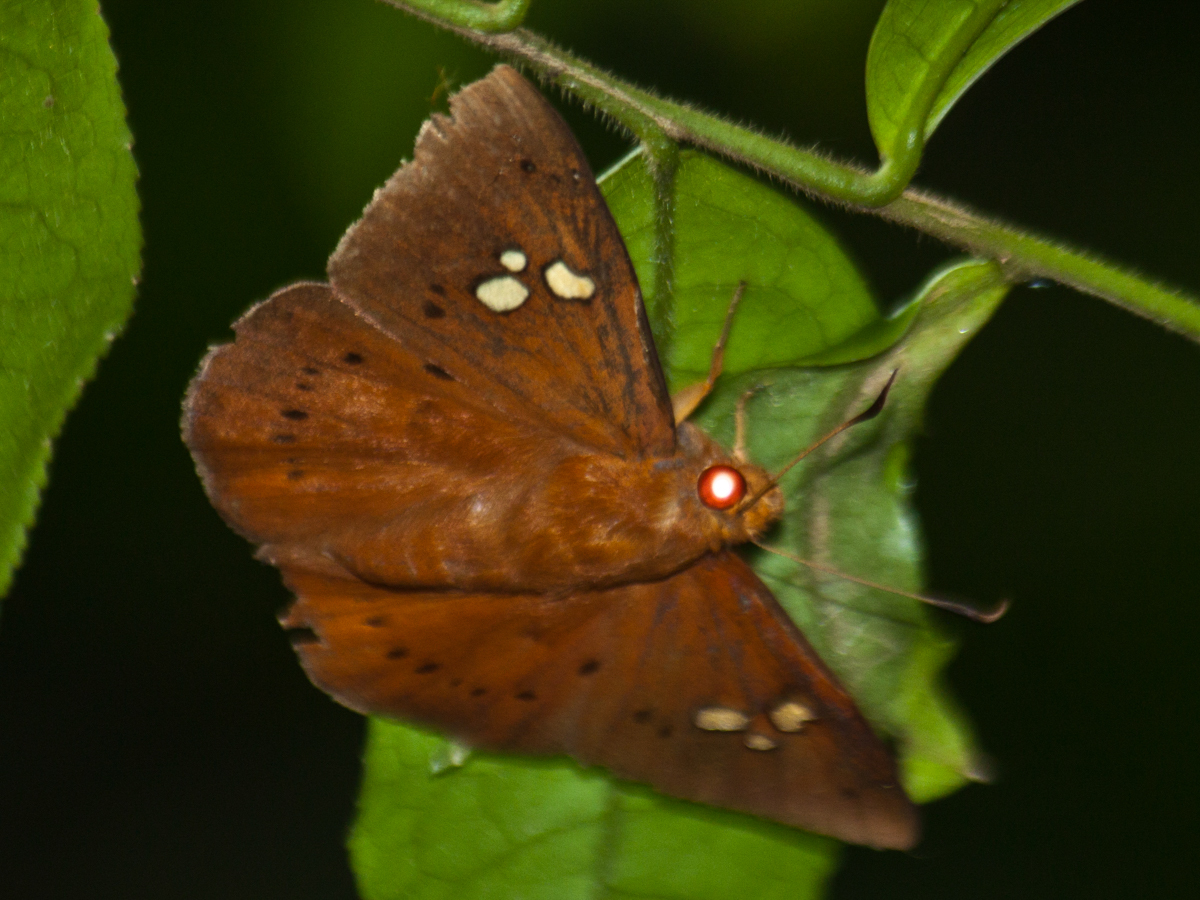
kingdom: Animalia
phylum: Arthropoda
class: Insecta
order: Lepidoptera
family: Hesperiidae
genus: Capila
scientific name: Capila phanaeus
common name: Fulvous dawnfly
